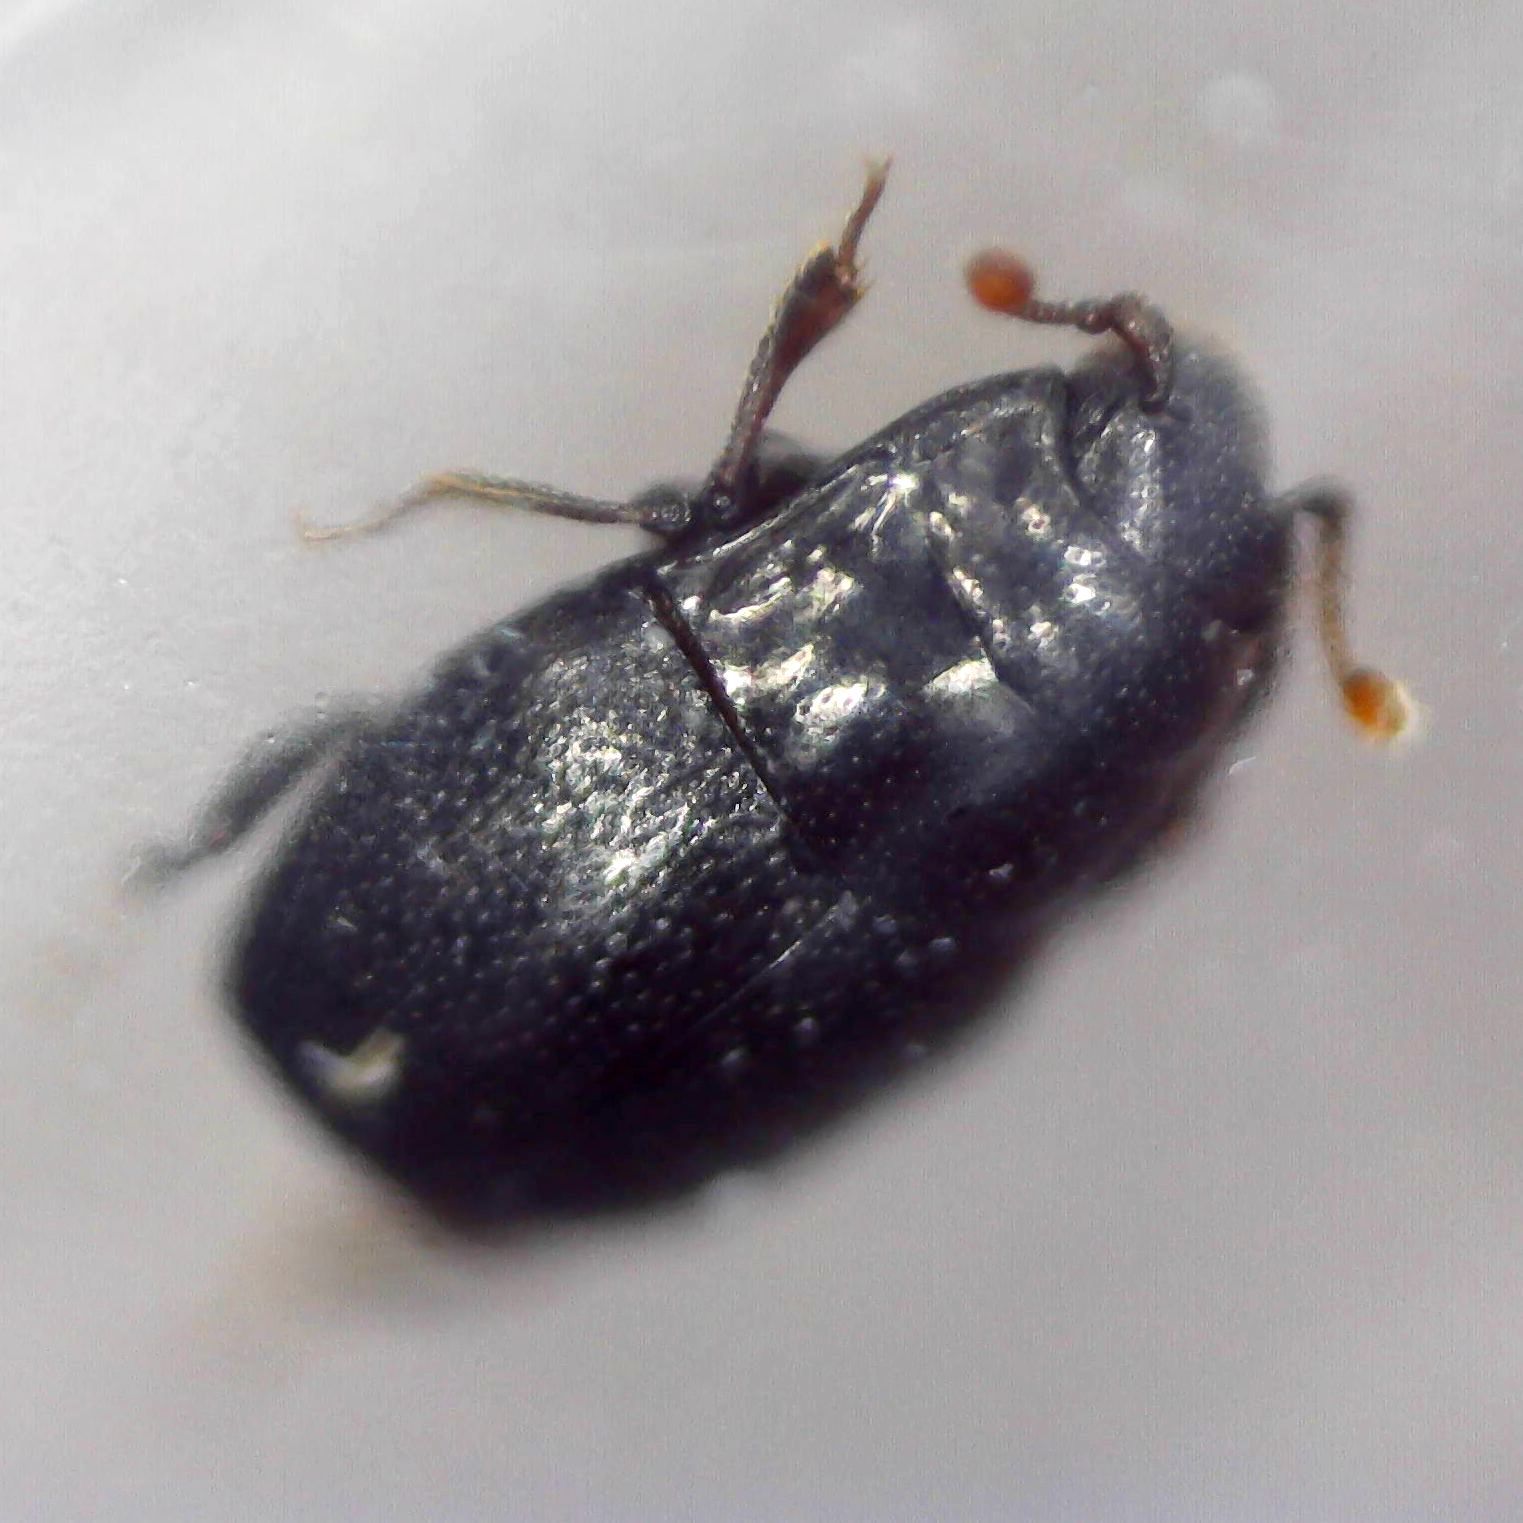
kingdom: Animalia
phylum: Arthropoda
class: Insecta
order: Coleoptera
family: Histeridae
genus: Plegaderus
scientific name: Plegaderus vulneratus
